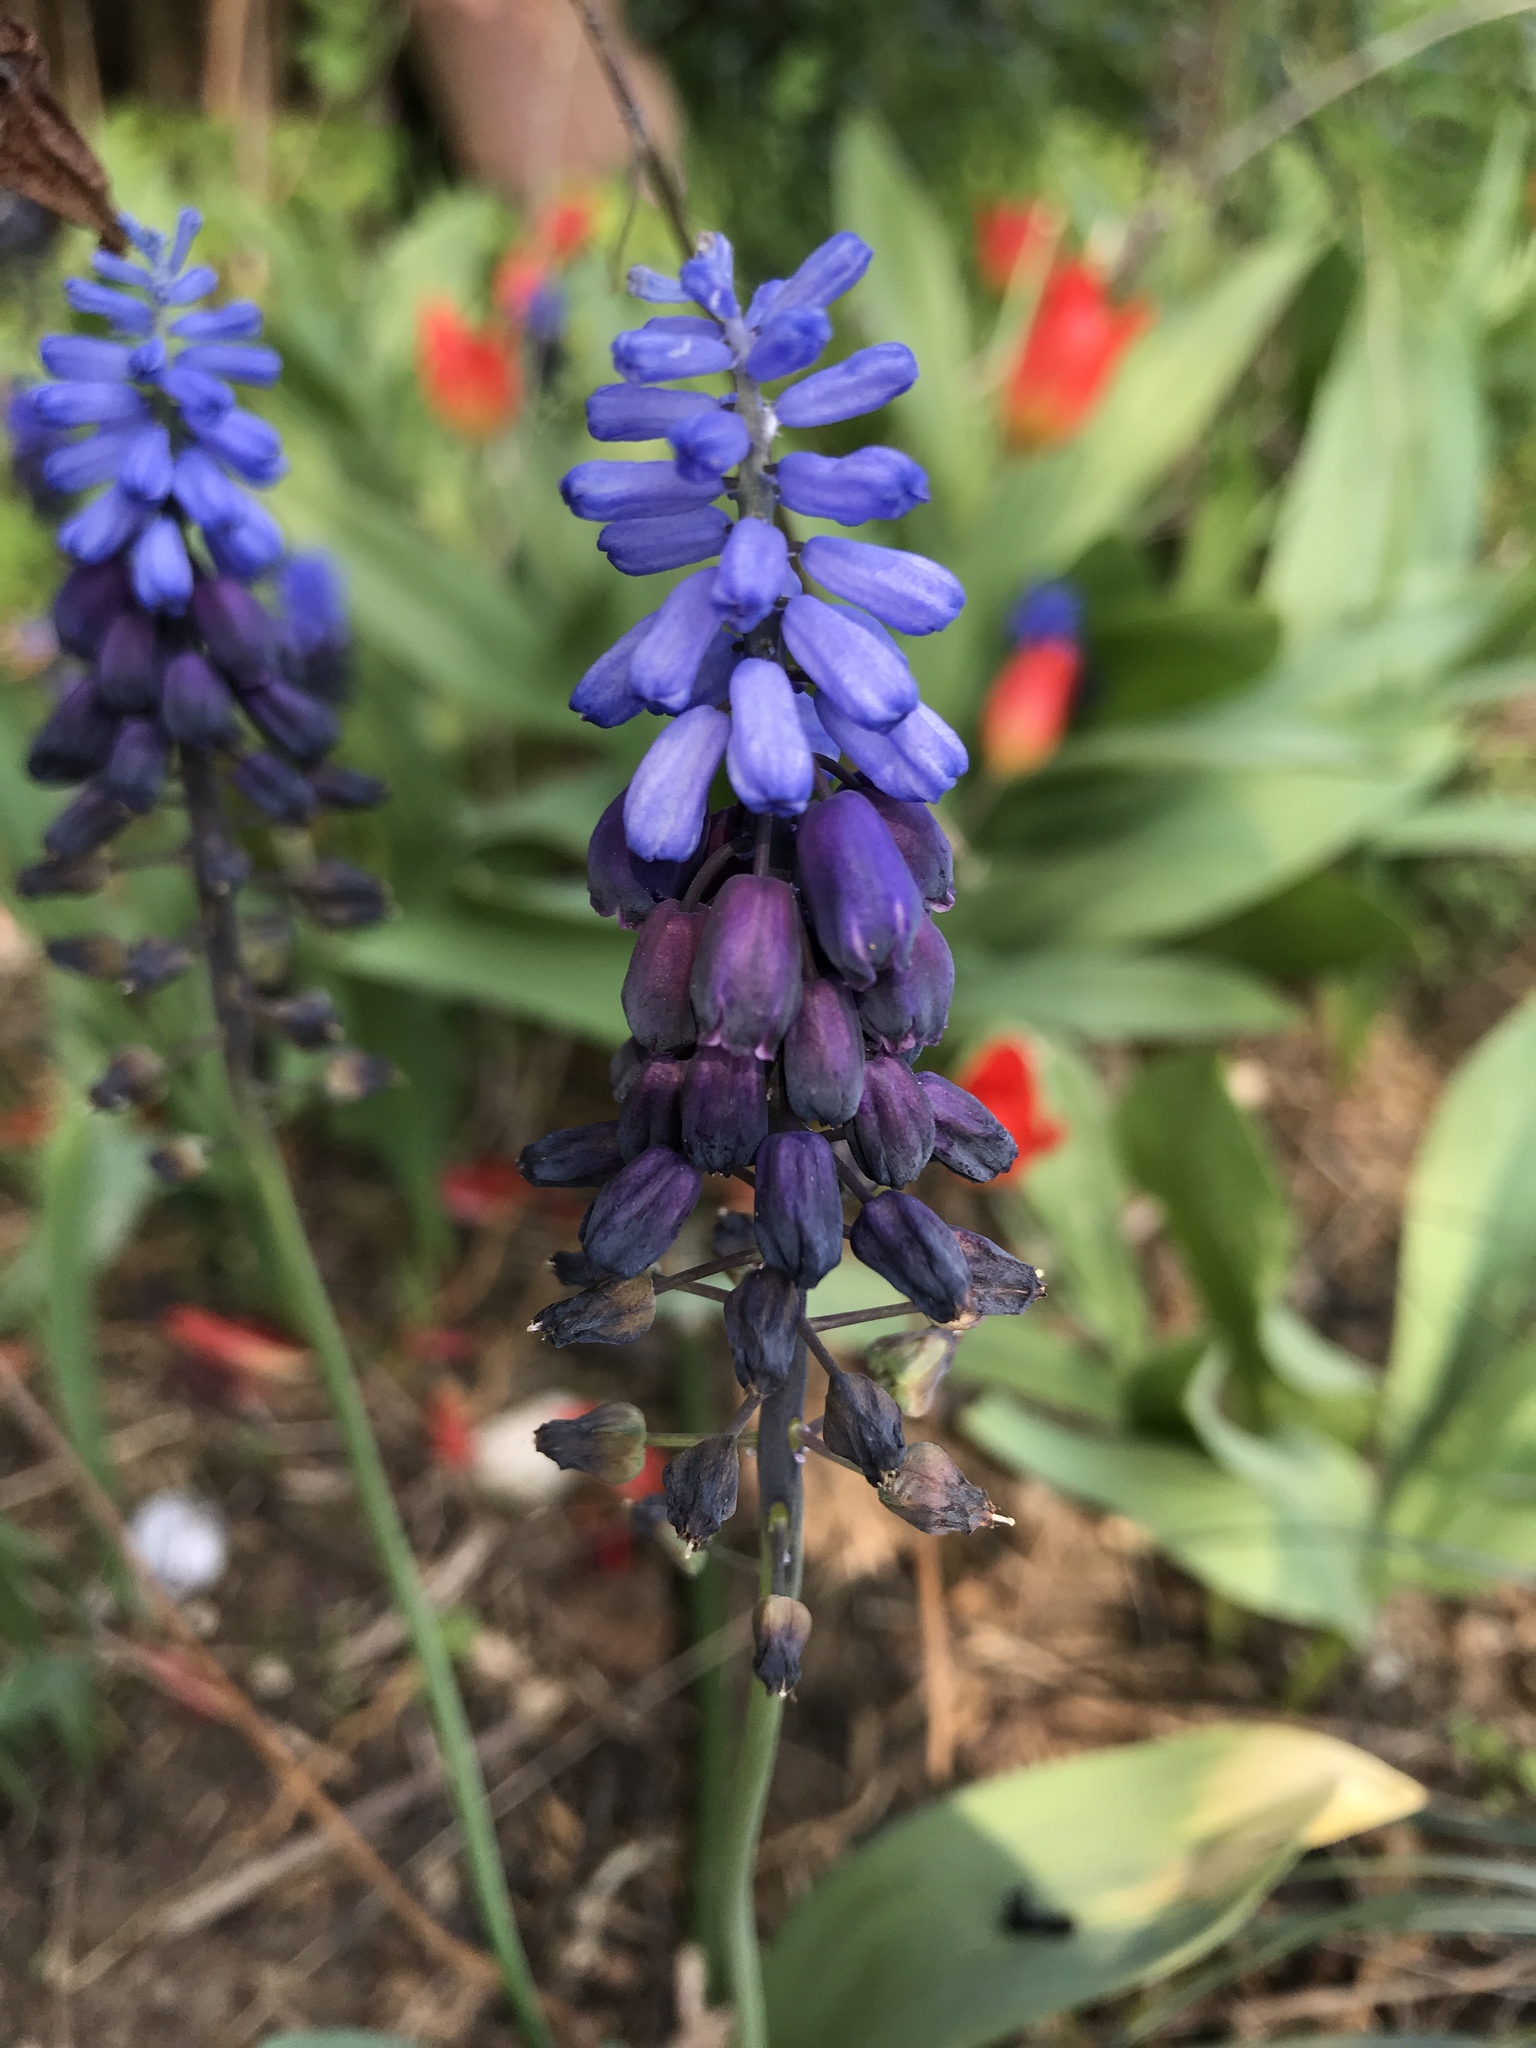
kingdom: Plantae
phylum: Tracheophyta
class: Liliopsida
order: Asparagales
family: Asparagaceae
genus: Muscari
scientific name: Muscari neglectum
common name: Grape-hyacinth
